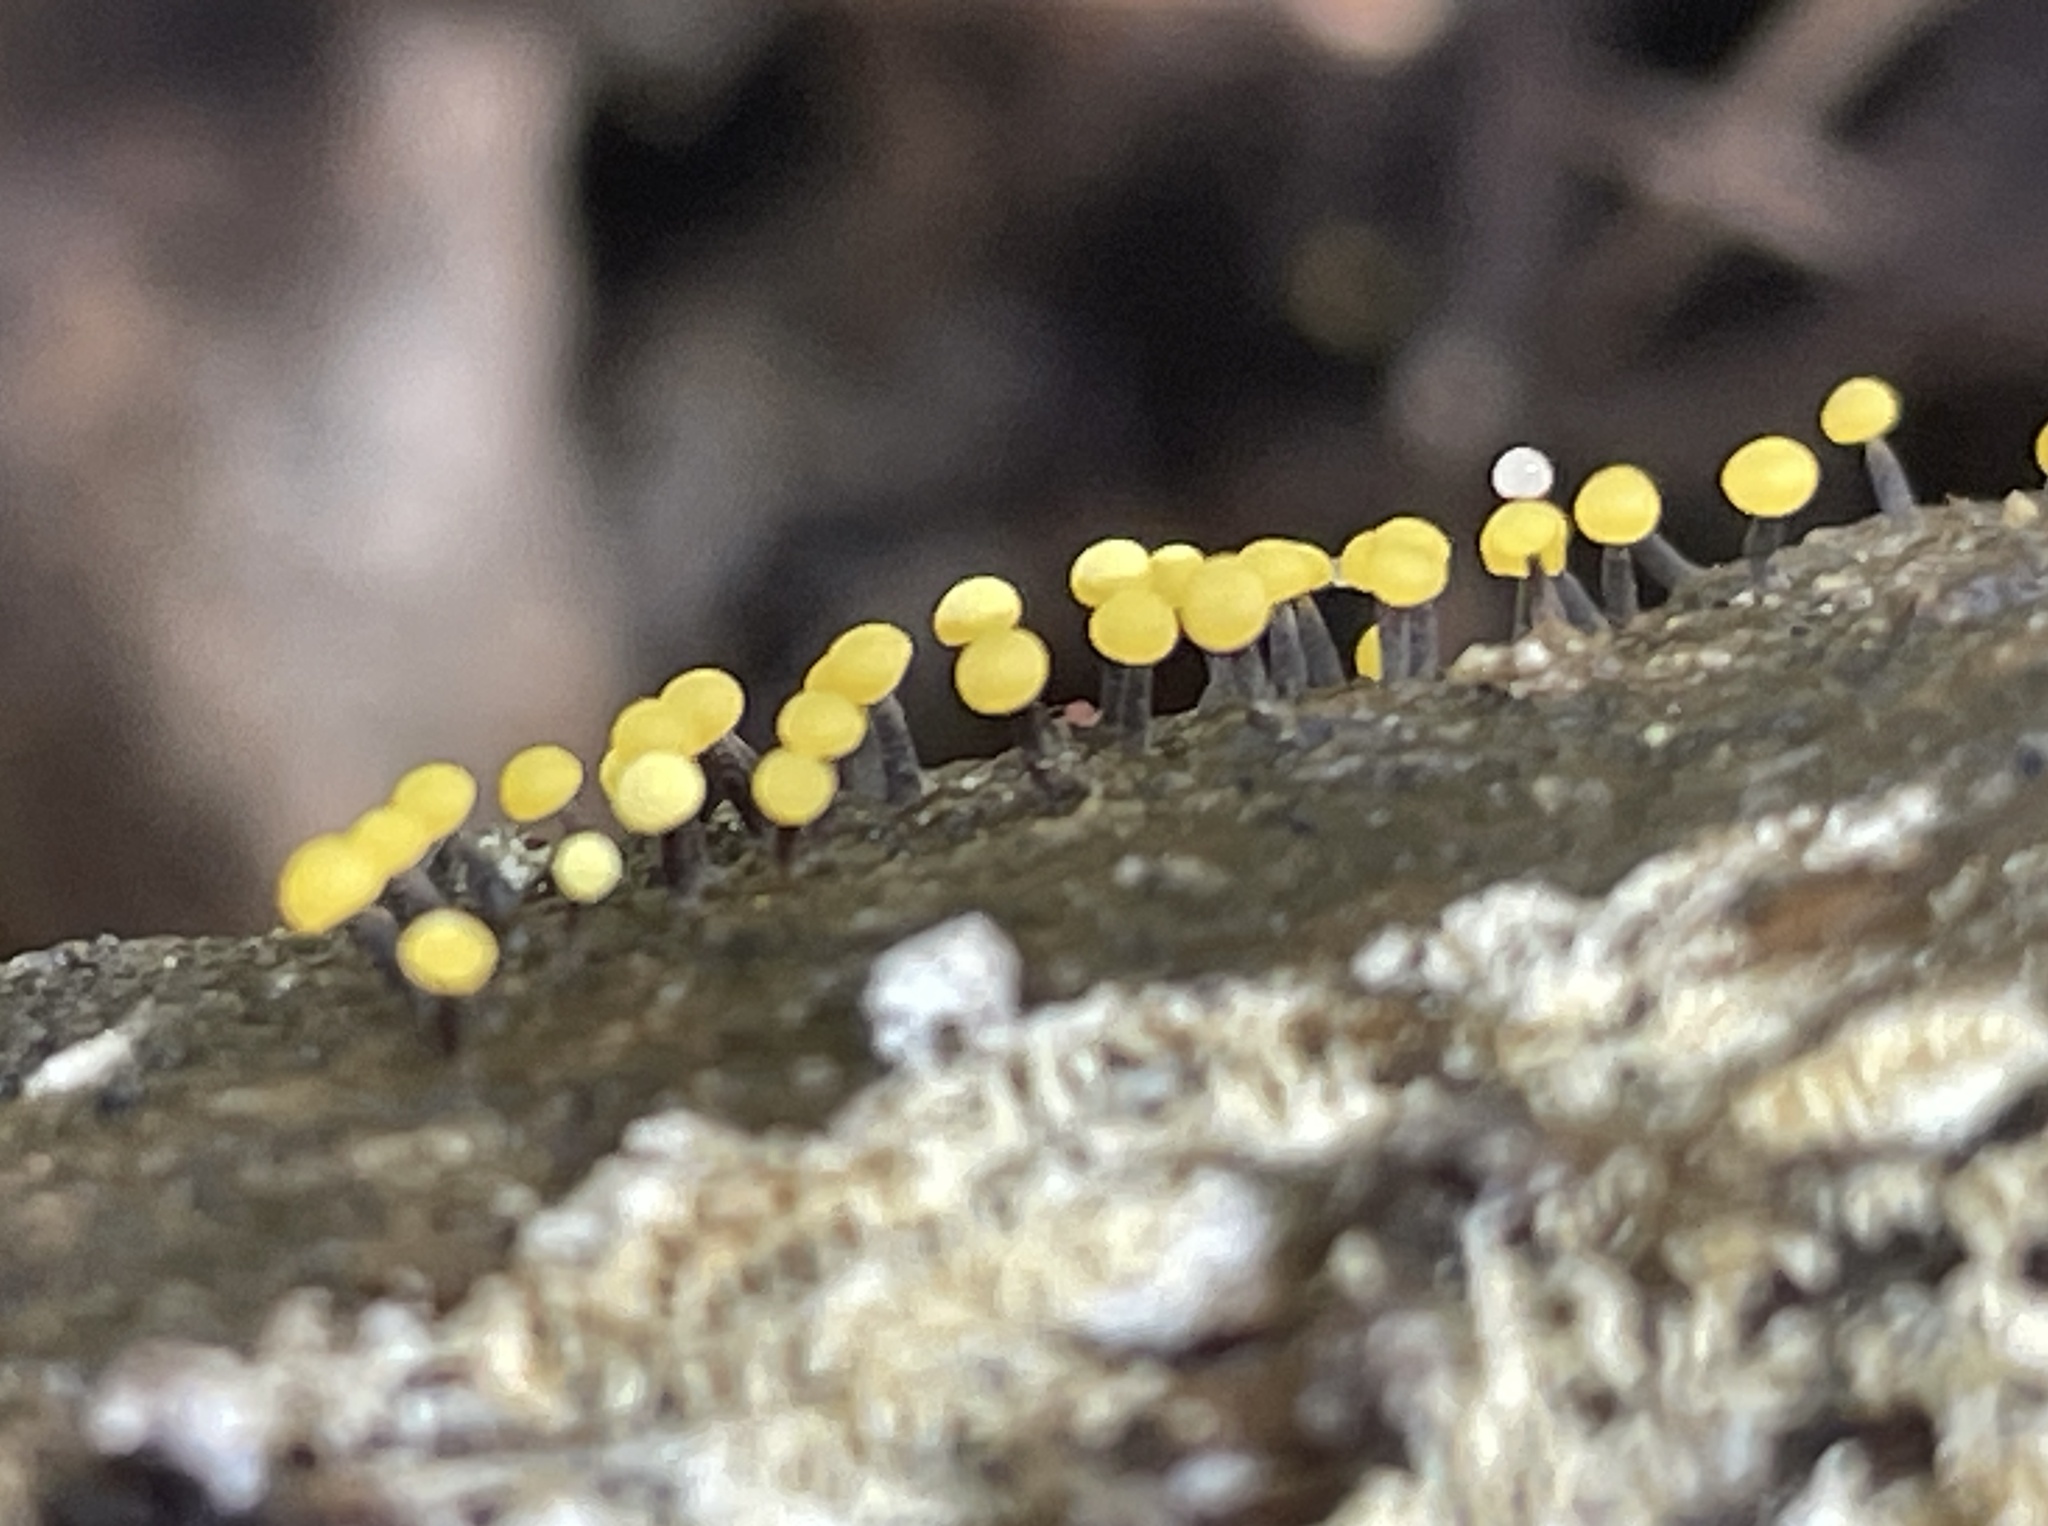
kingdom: Protozoa
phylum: Mycetozoa
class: Myxomycetes
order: Physarales
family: Physaraceae
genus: Physarum
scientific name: Physarum viride
